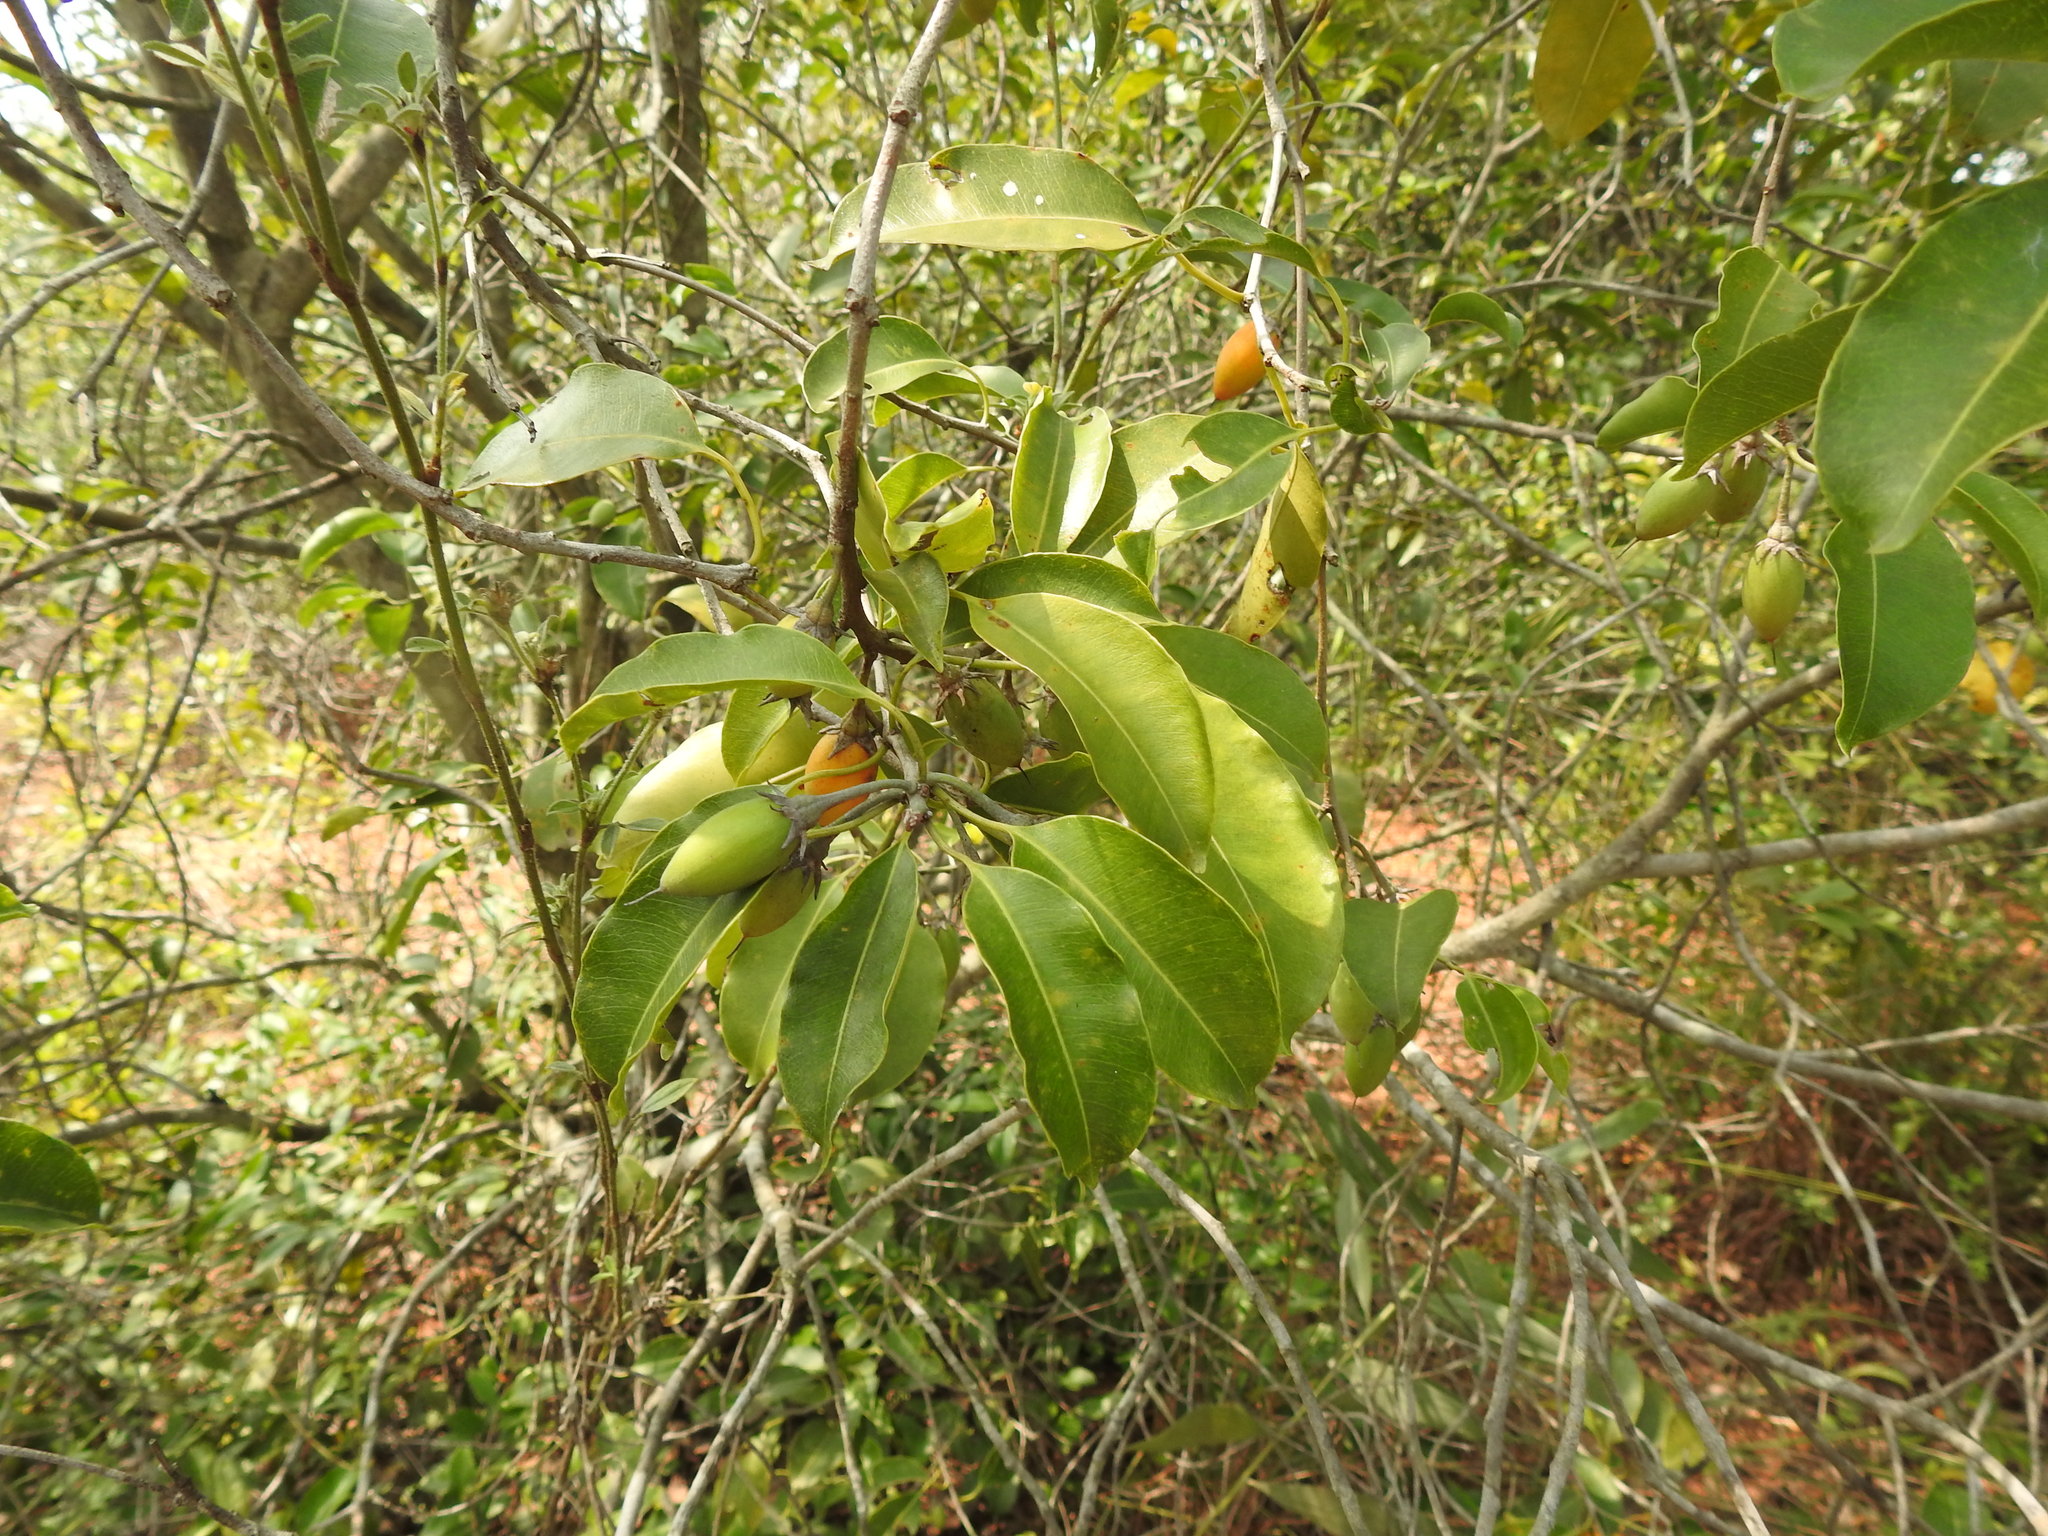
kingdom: Plantae
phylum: Tracheophyta
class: Magnoliopsida
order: Ericales
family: Sapotaceae
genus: Mimusops
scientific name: Mimusops elengi
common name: Spanish cherry
